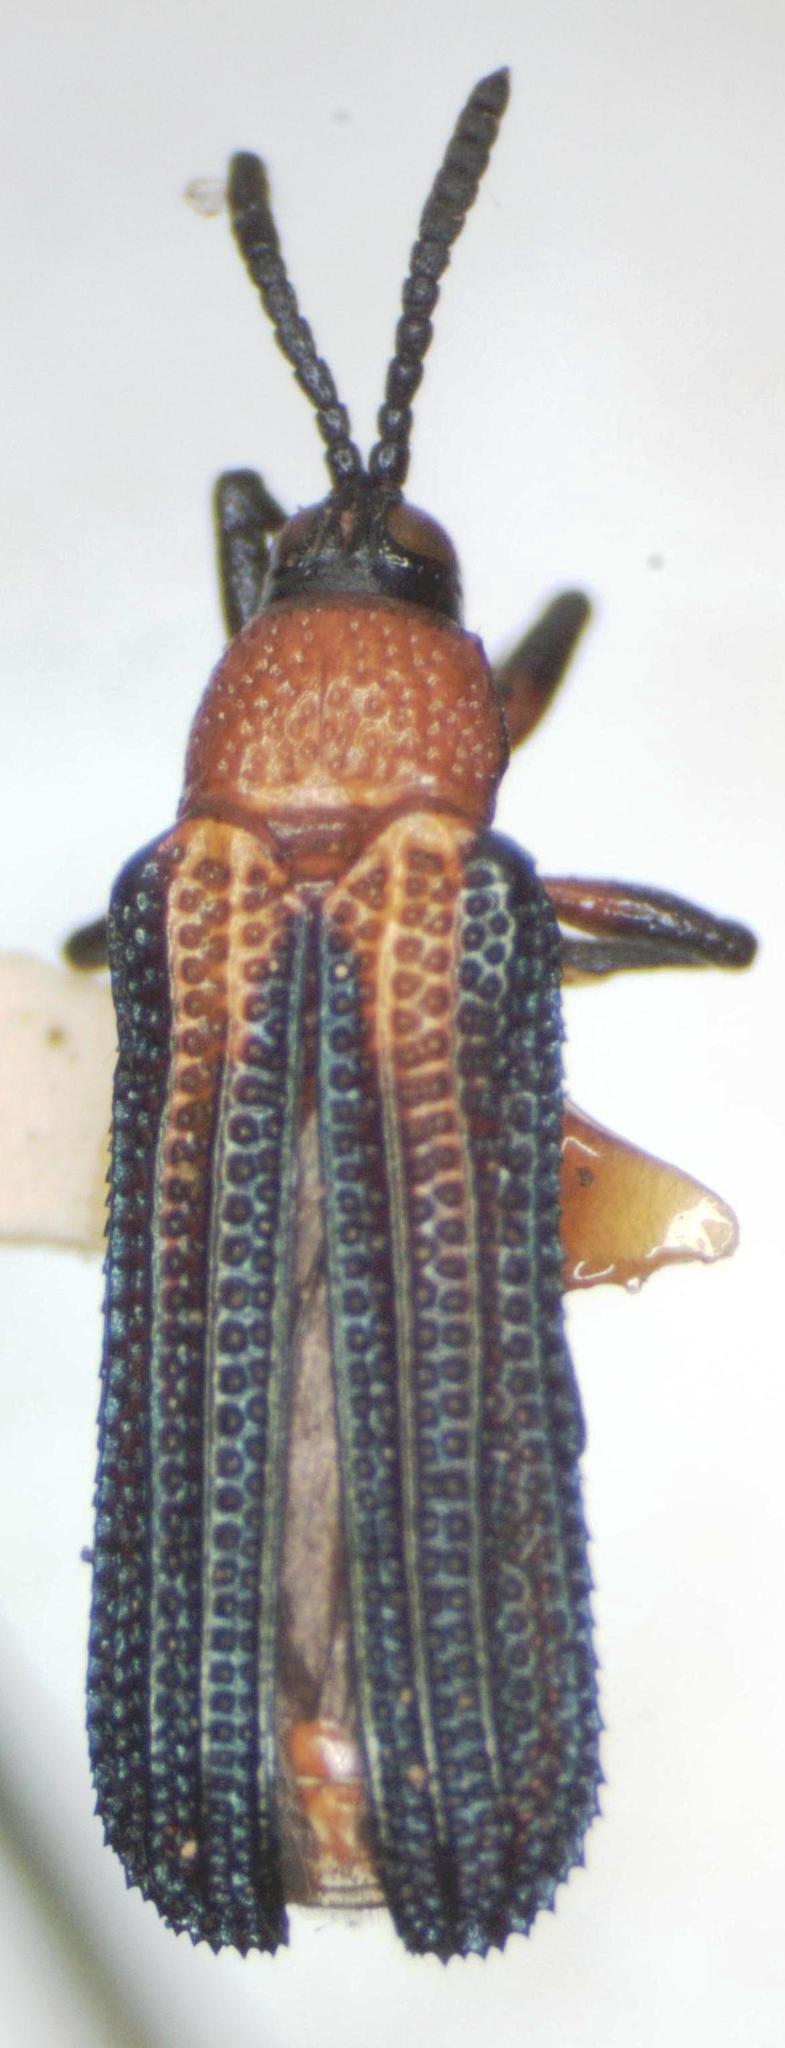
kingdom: Animalia
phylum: Arthropoda
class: Insecta
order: Coleoptera
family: Chrysomelidae
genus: Chalepus
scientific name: Chalepus bellulus
